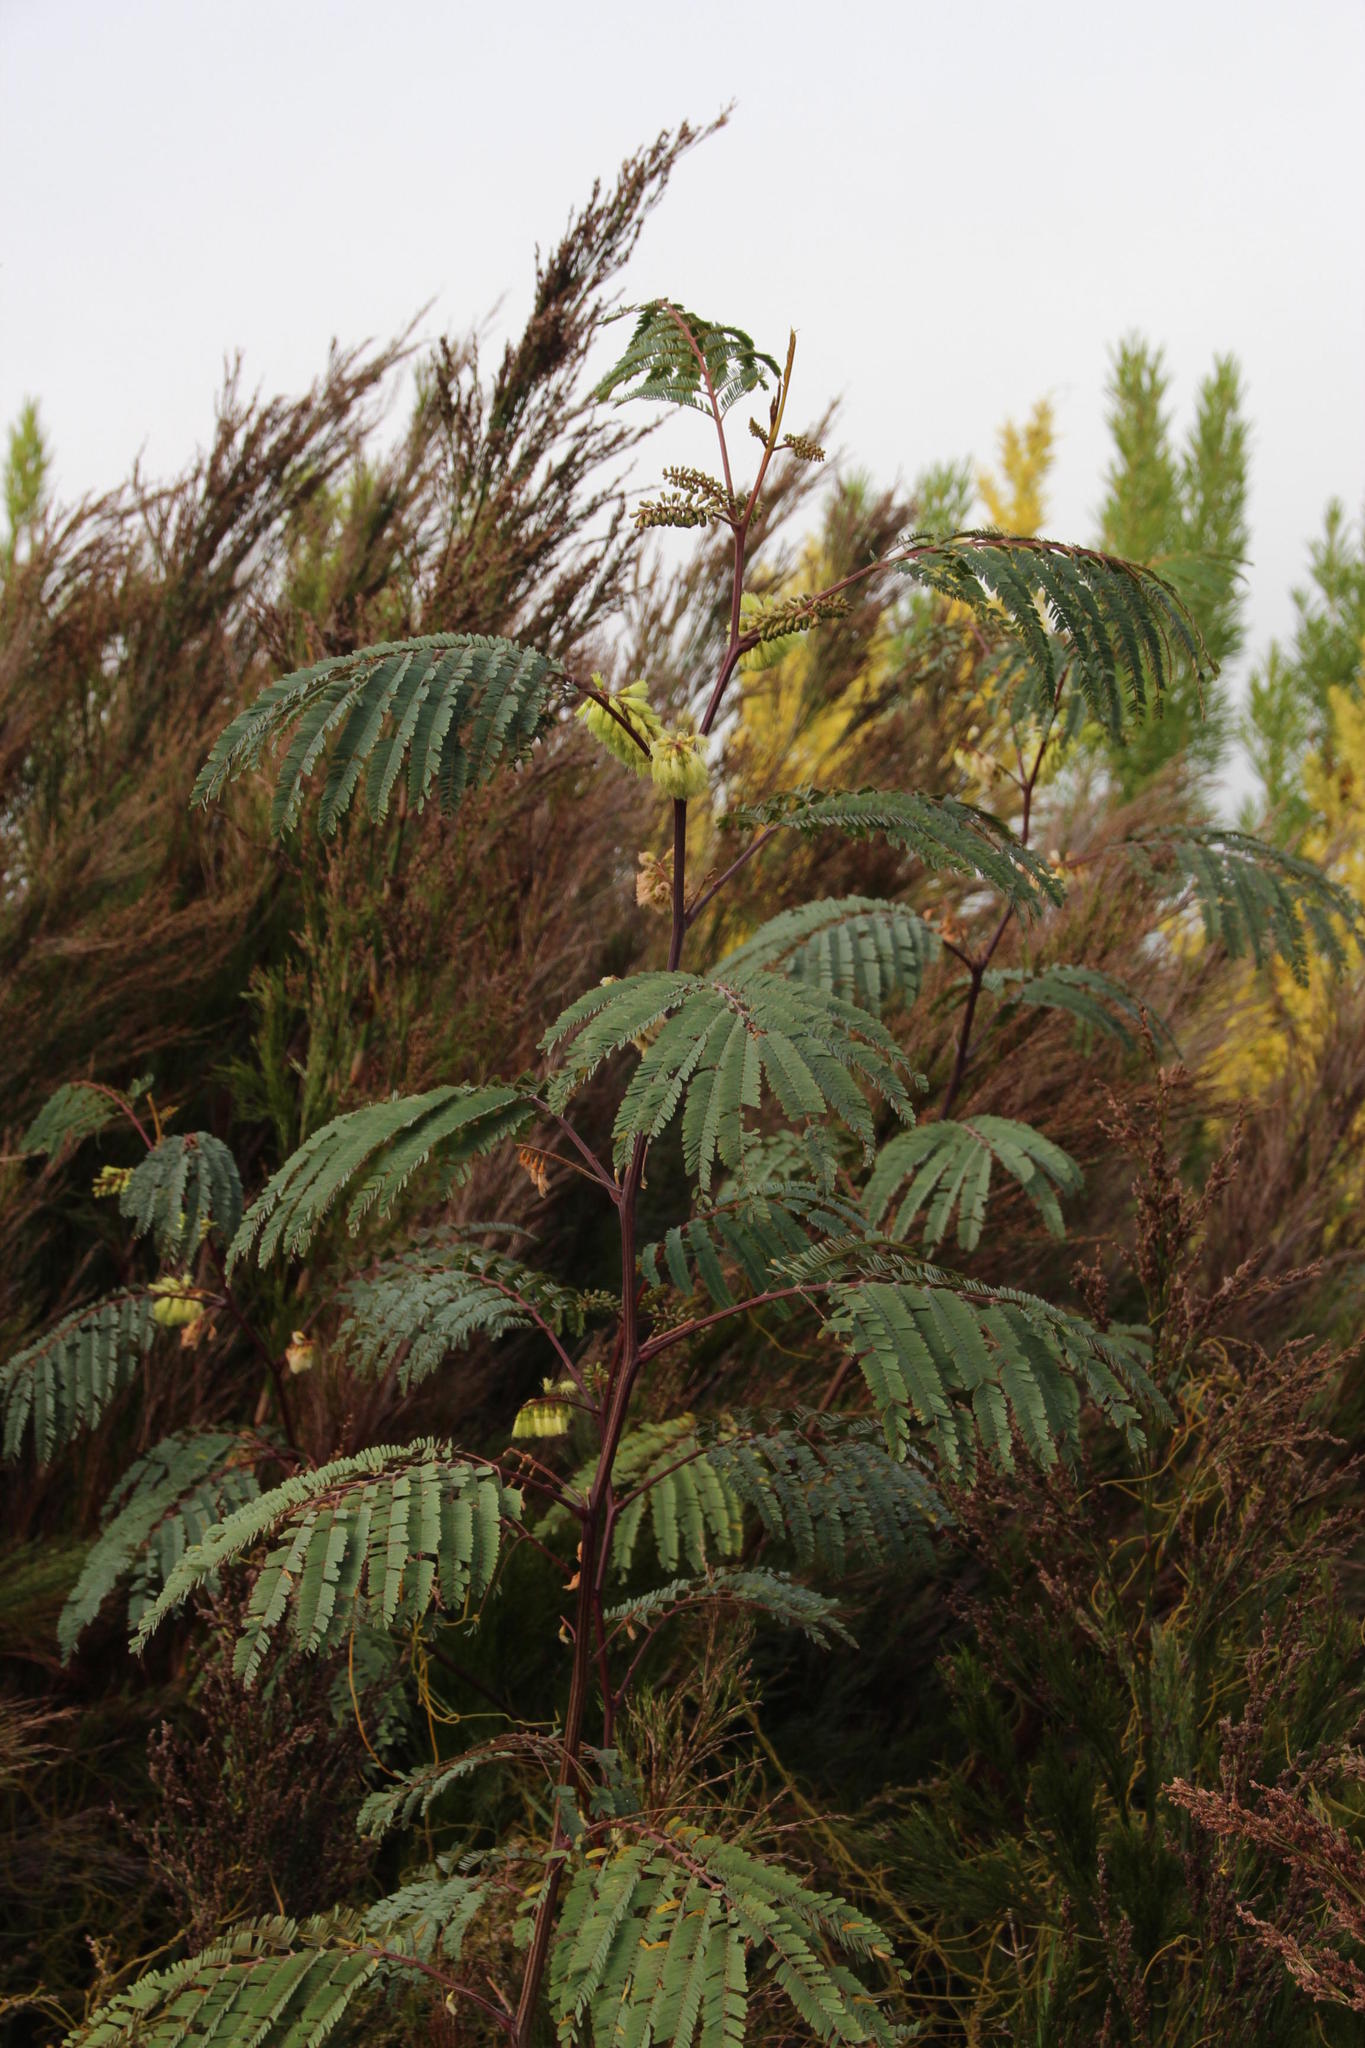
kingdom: Plantae
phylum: Tracheophyta
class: Magnoliopsida
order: Fabales
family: Fabaceae
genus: Paraserianthes
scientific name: Paraserianthes lophantha
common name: Plume albizia
